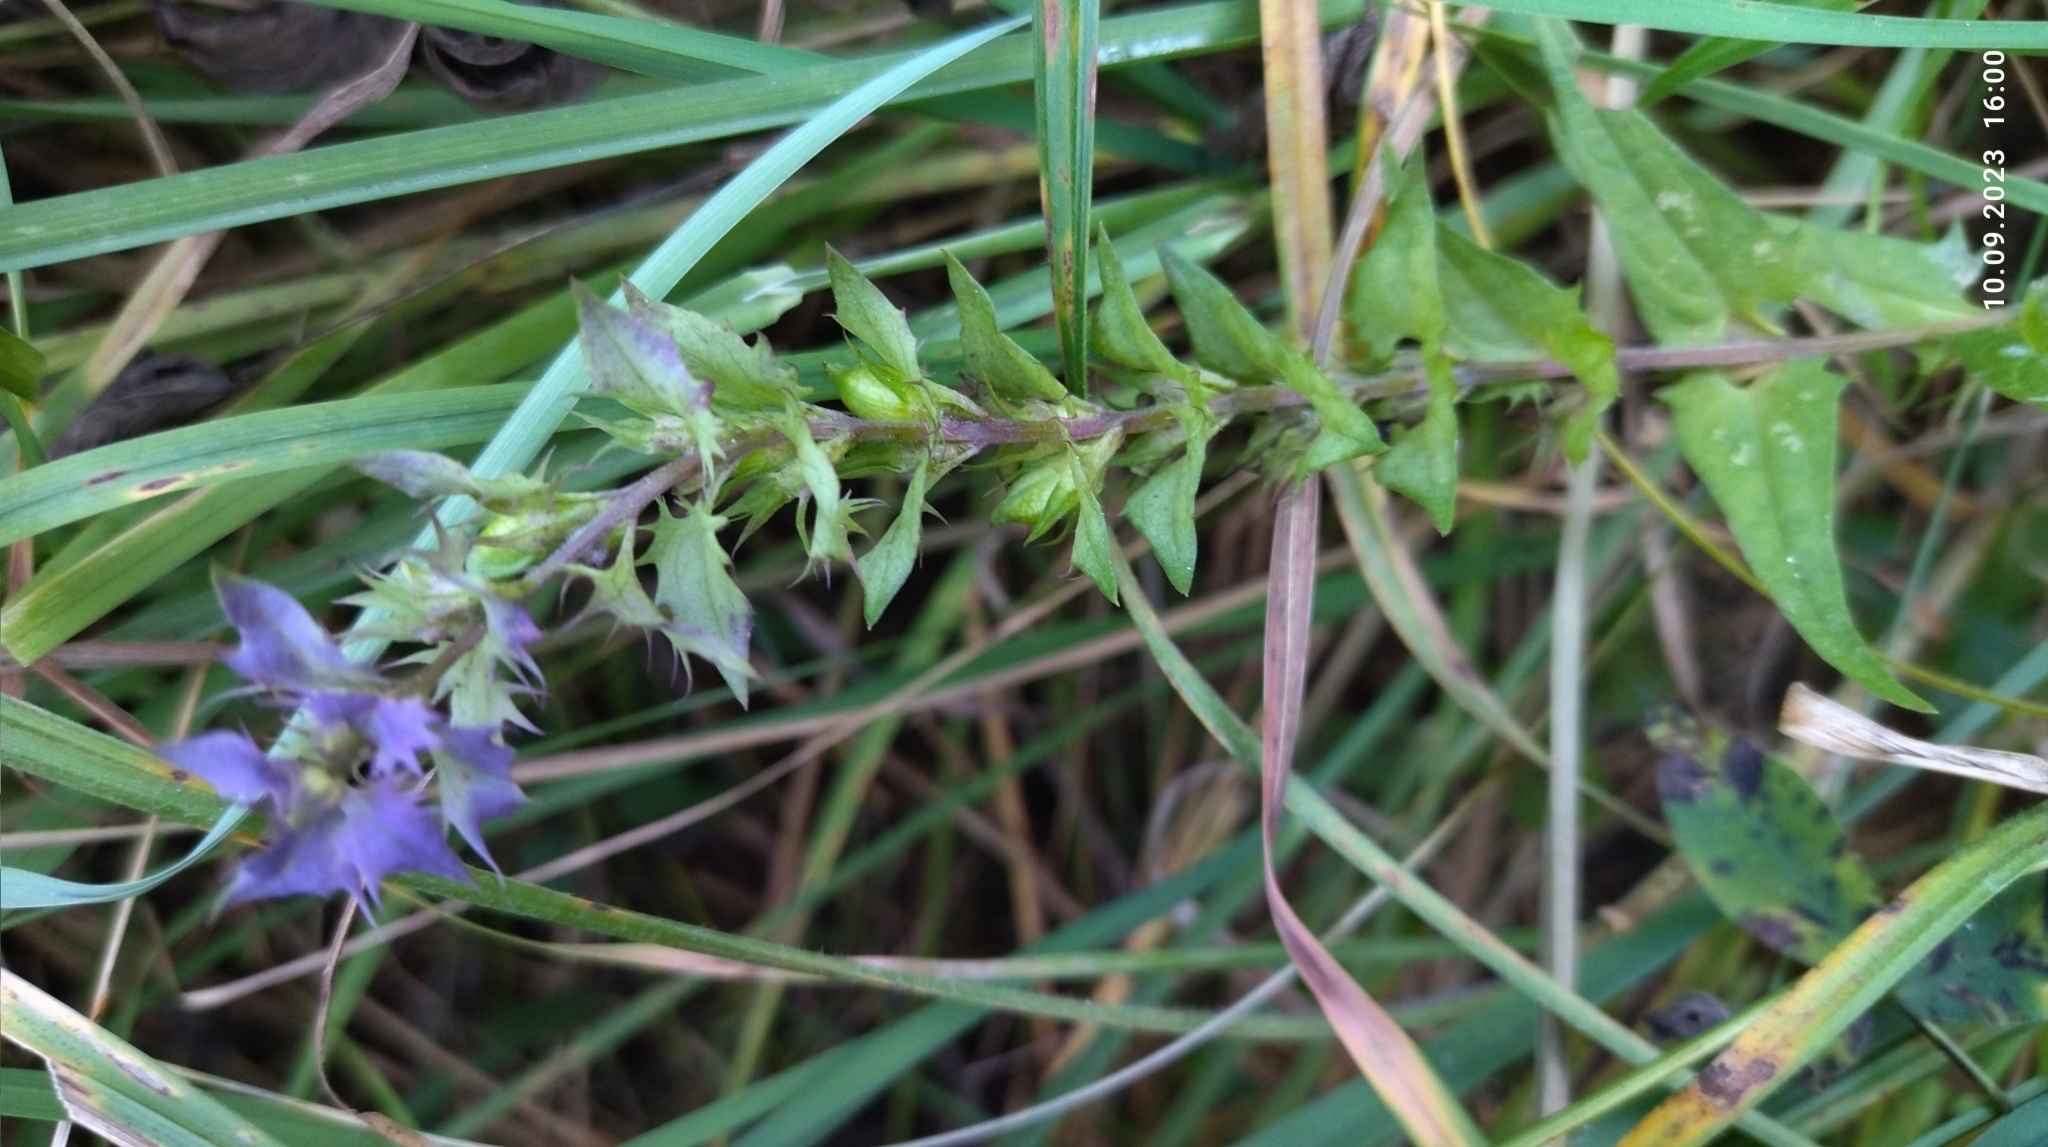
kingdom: Plantae
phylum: Tracheophyta
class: Magnoliopsida
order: Lamiales
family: Orobanchaceae
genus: Melampyrum
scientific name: Melampyrum nemorosum
